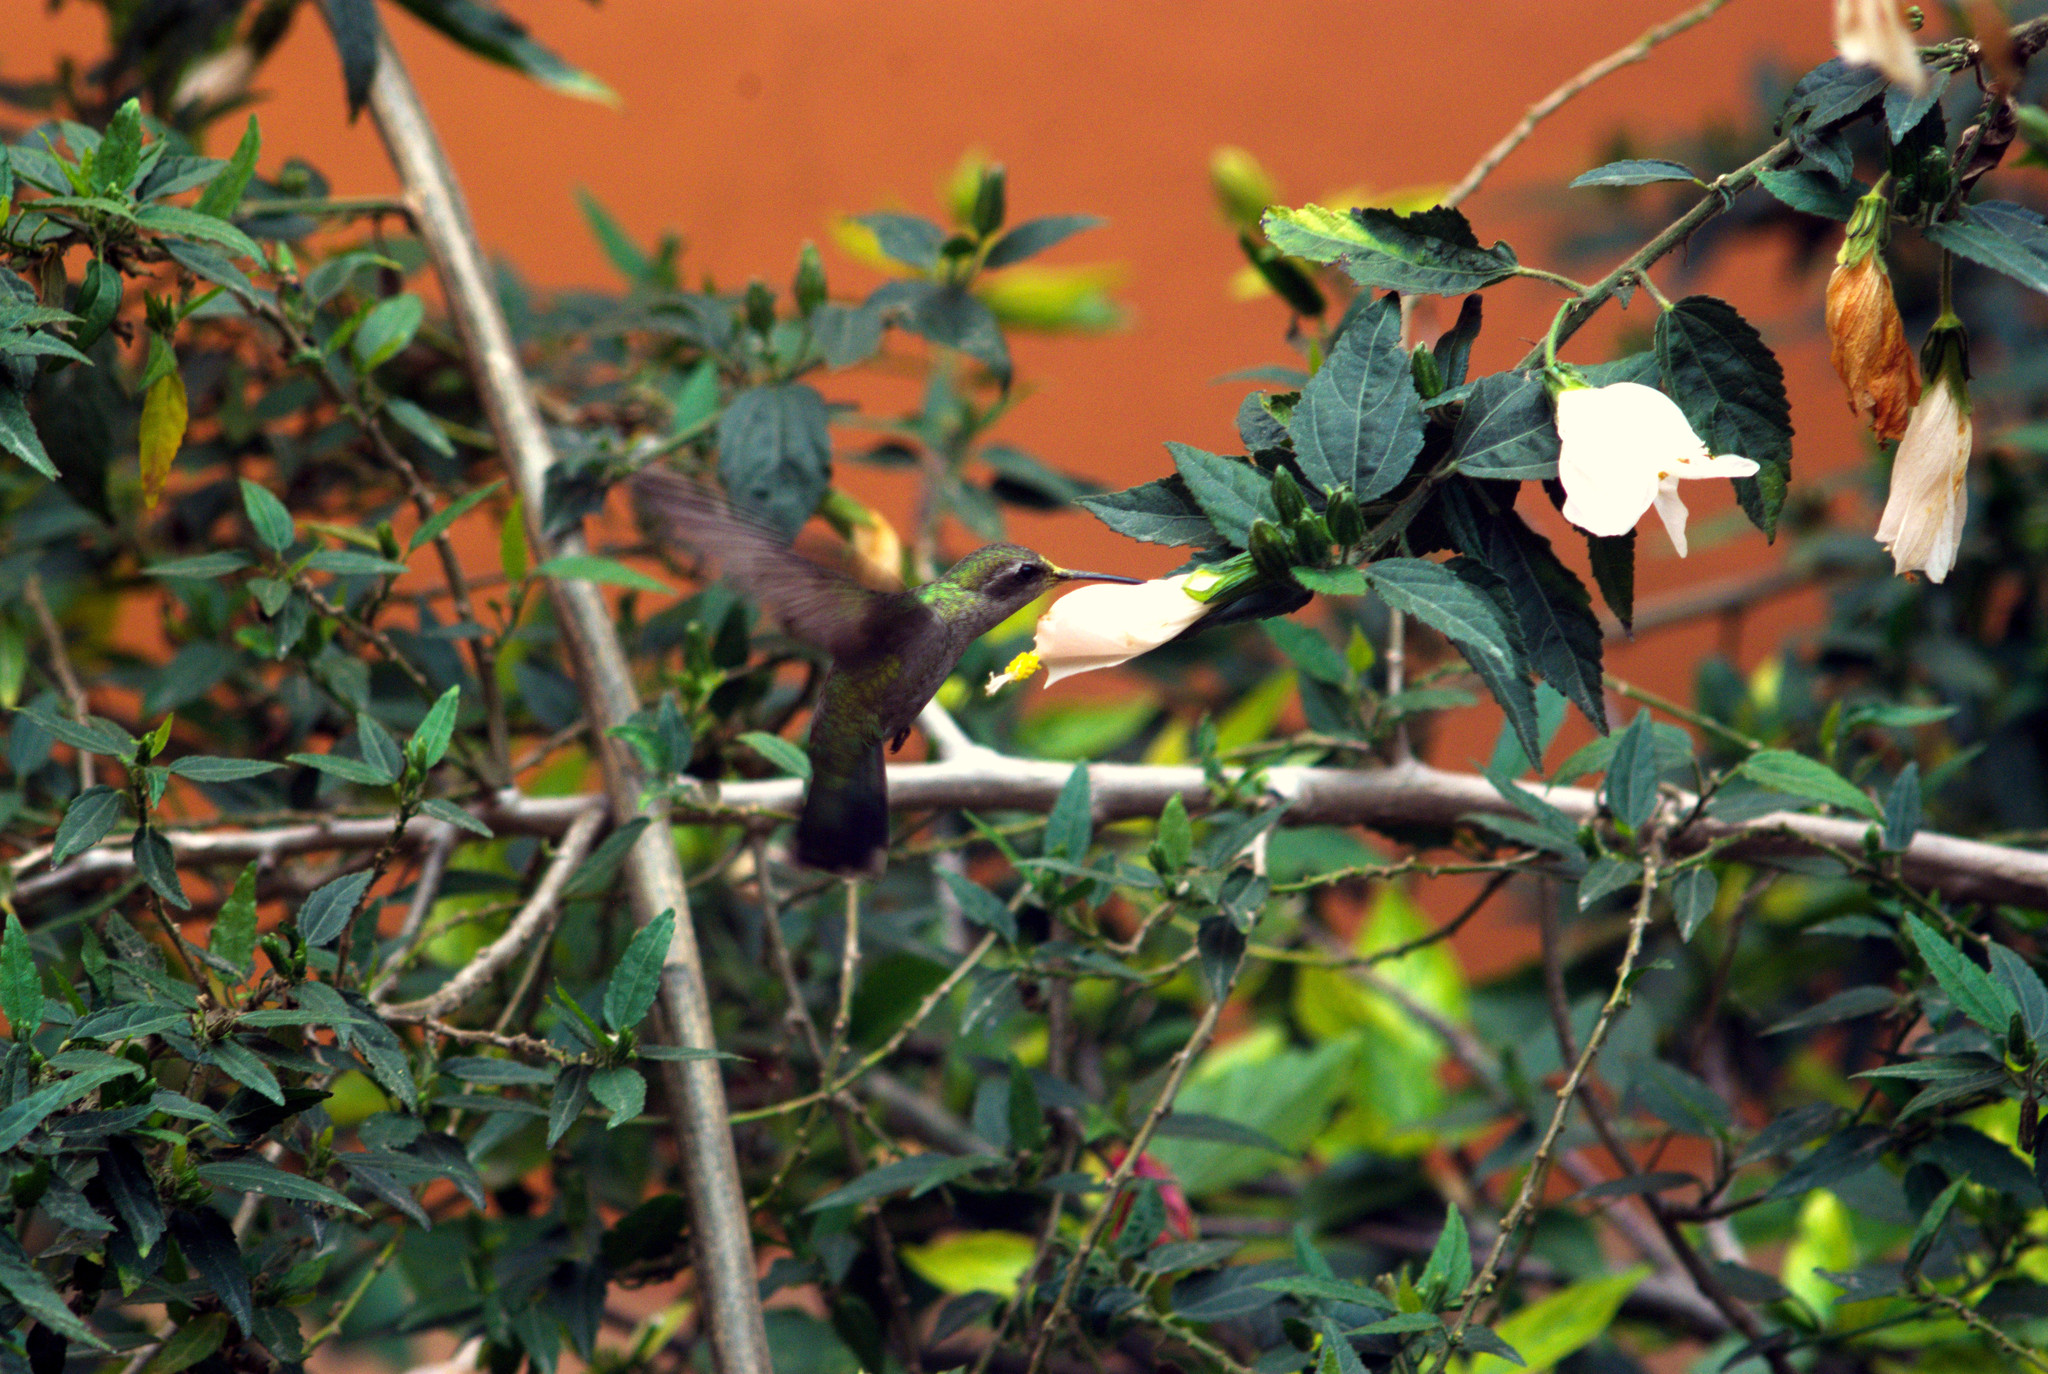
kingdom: Animalia
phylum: Chordata
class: Aves
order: Apodiformes
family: Trochilidae
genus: Cynanthus
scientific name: Cynanthus latirostris
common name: Broad-billed hummingbird
